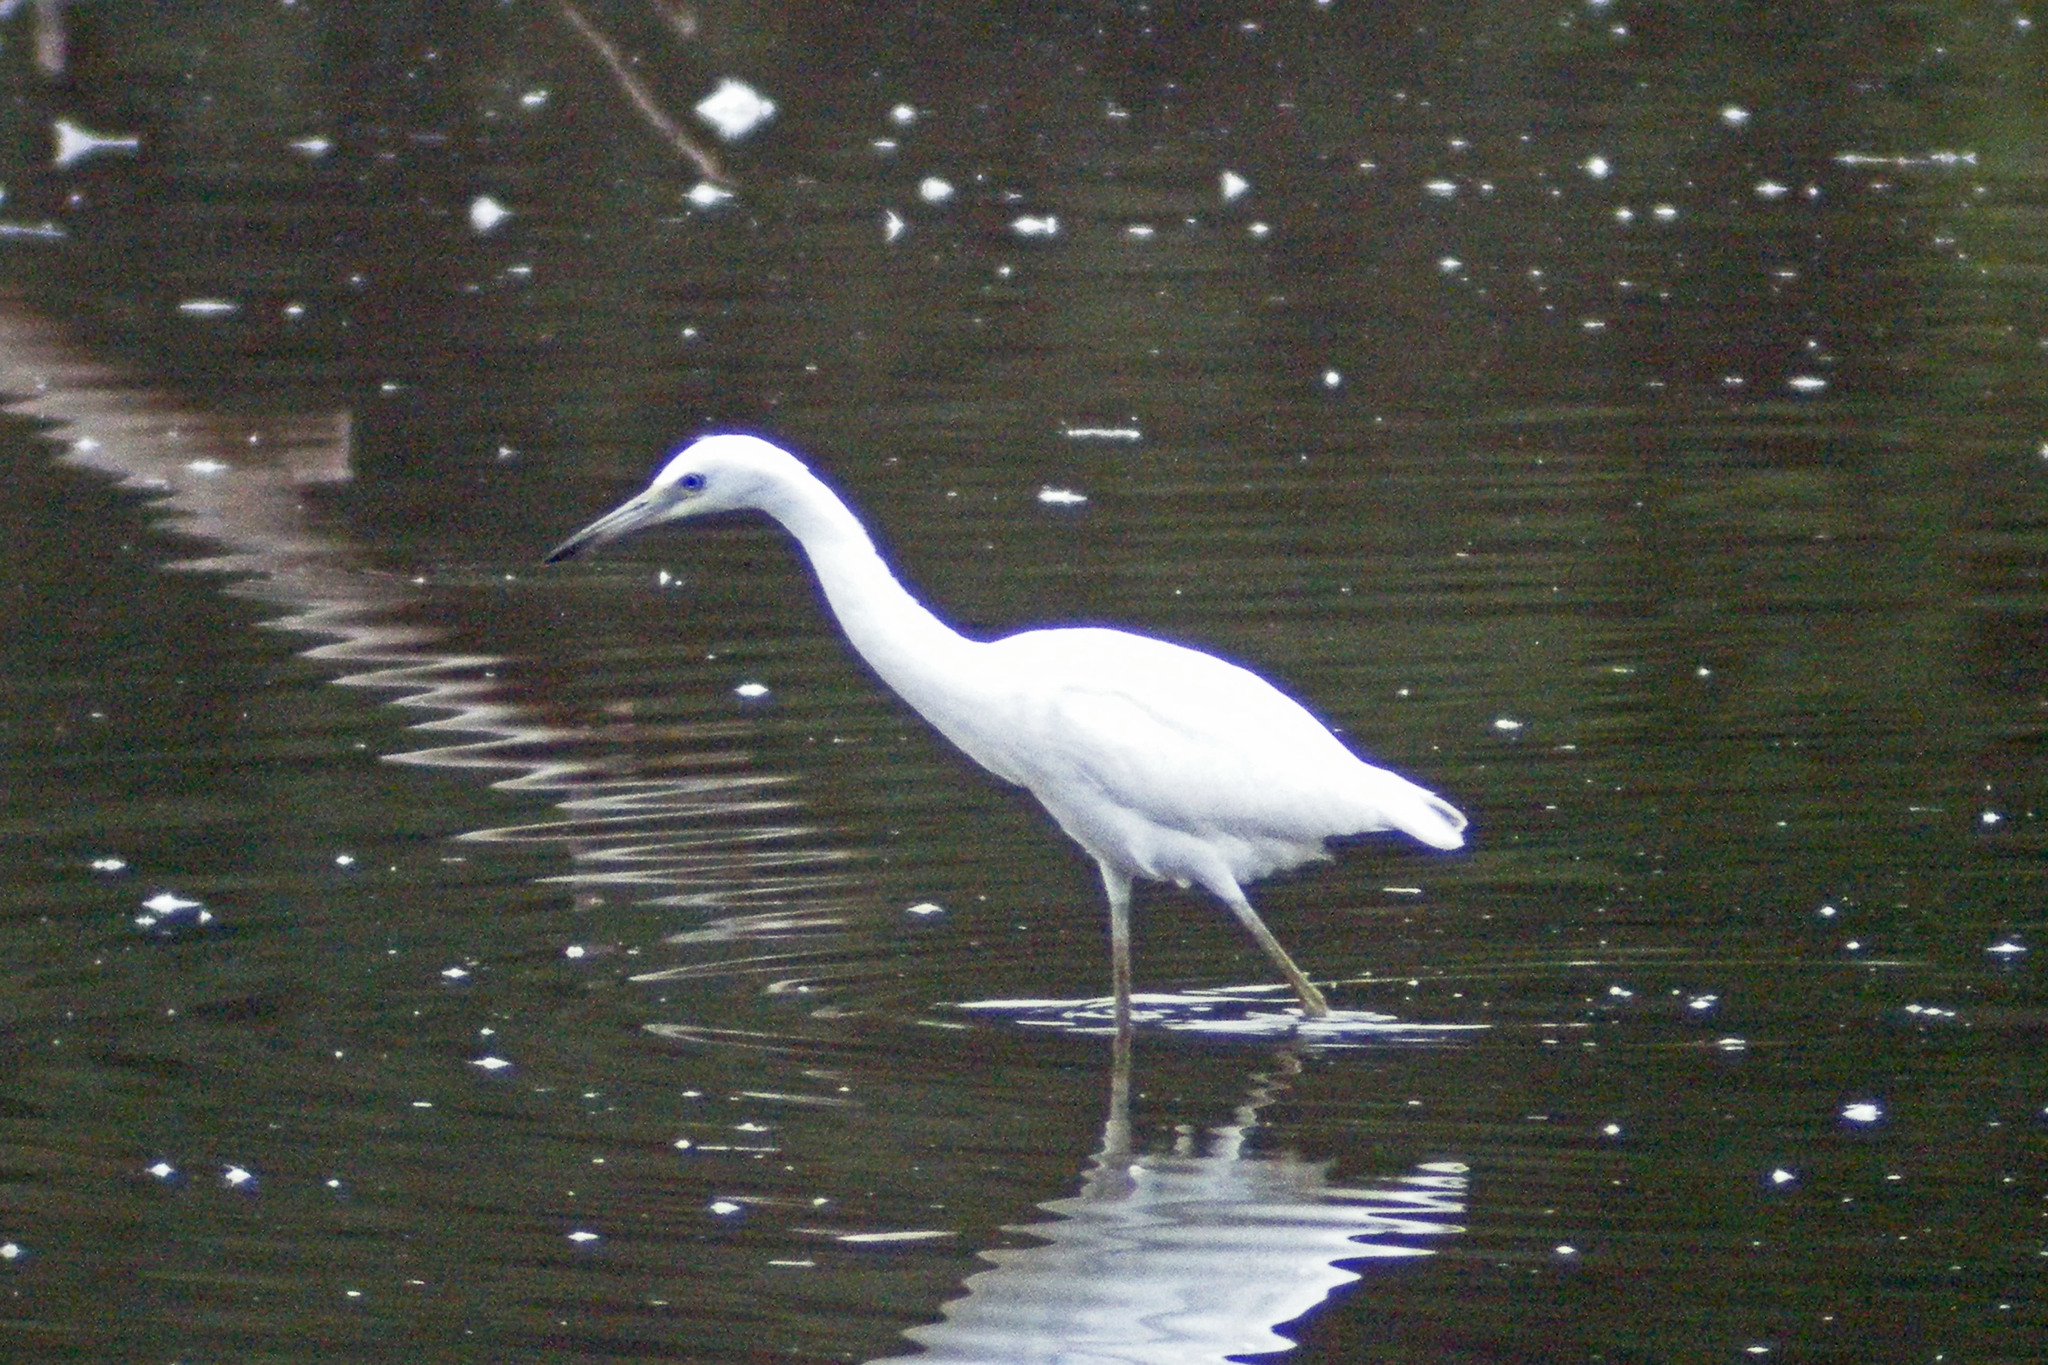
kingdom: Animalia
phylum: Chordata
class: Aves
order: Pelecaniformes
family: Ardeidae
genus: Egretta
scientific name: Egretta caerulea
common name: Little blue heron
